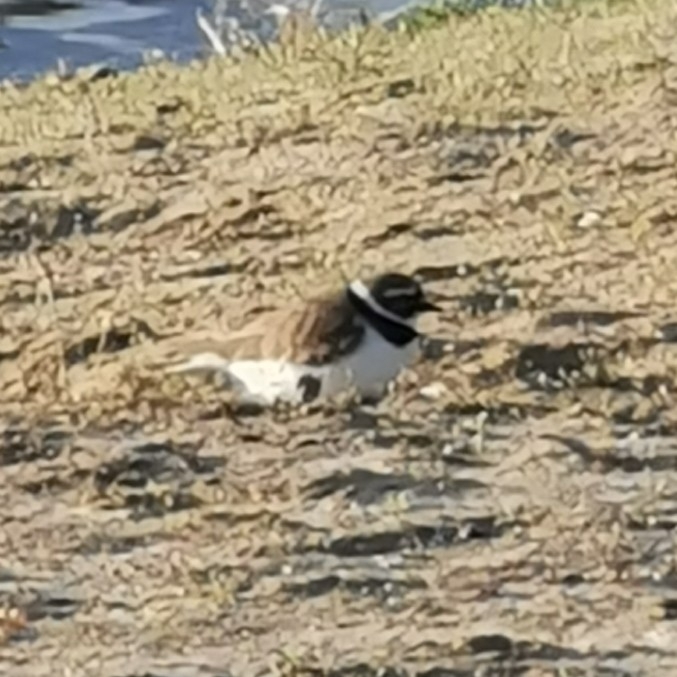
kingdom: Animalia
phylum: Chordata
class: Aves
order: Charadriiformes
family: Charadriidae
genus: Charadrius
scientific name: Charadrius dubius
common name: Little ringed plover
